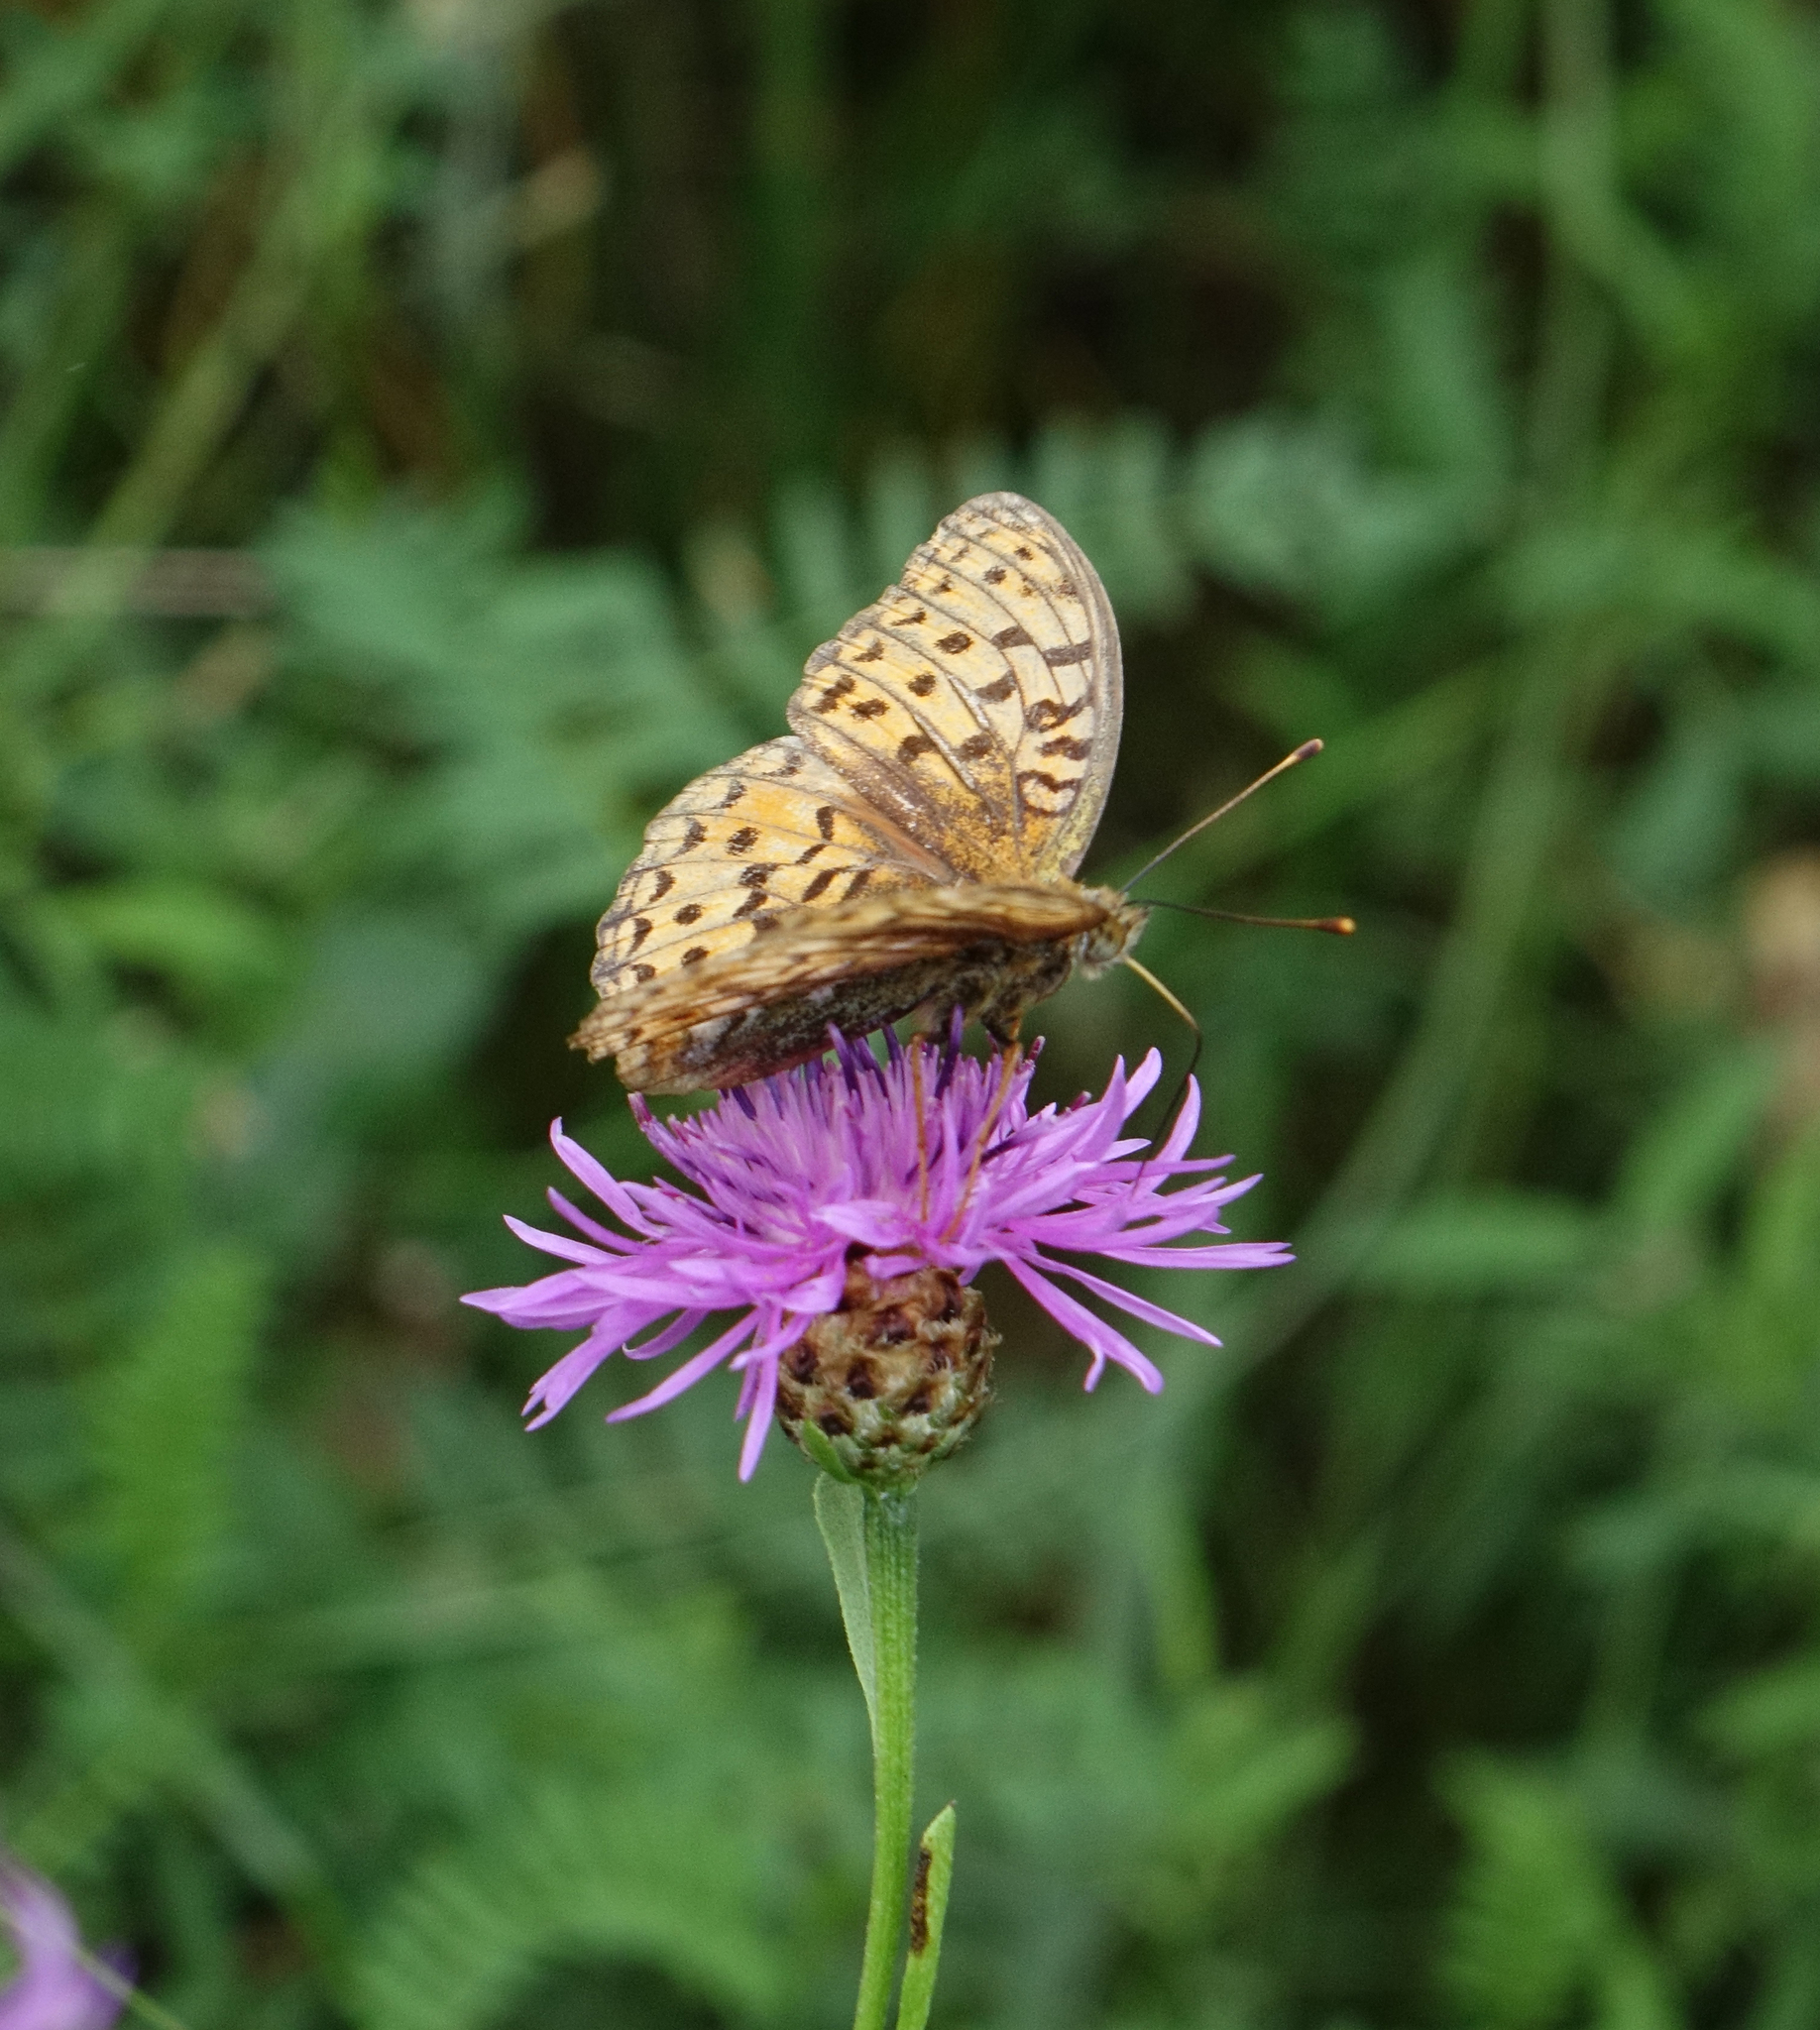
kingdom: Animalia
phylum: Arthropoda
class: Insecta
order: Lepidoptera
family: Nymphalidae
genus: Fabriciana
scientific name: Fabriciana adippe
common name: High brown fritillary
